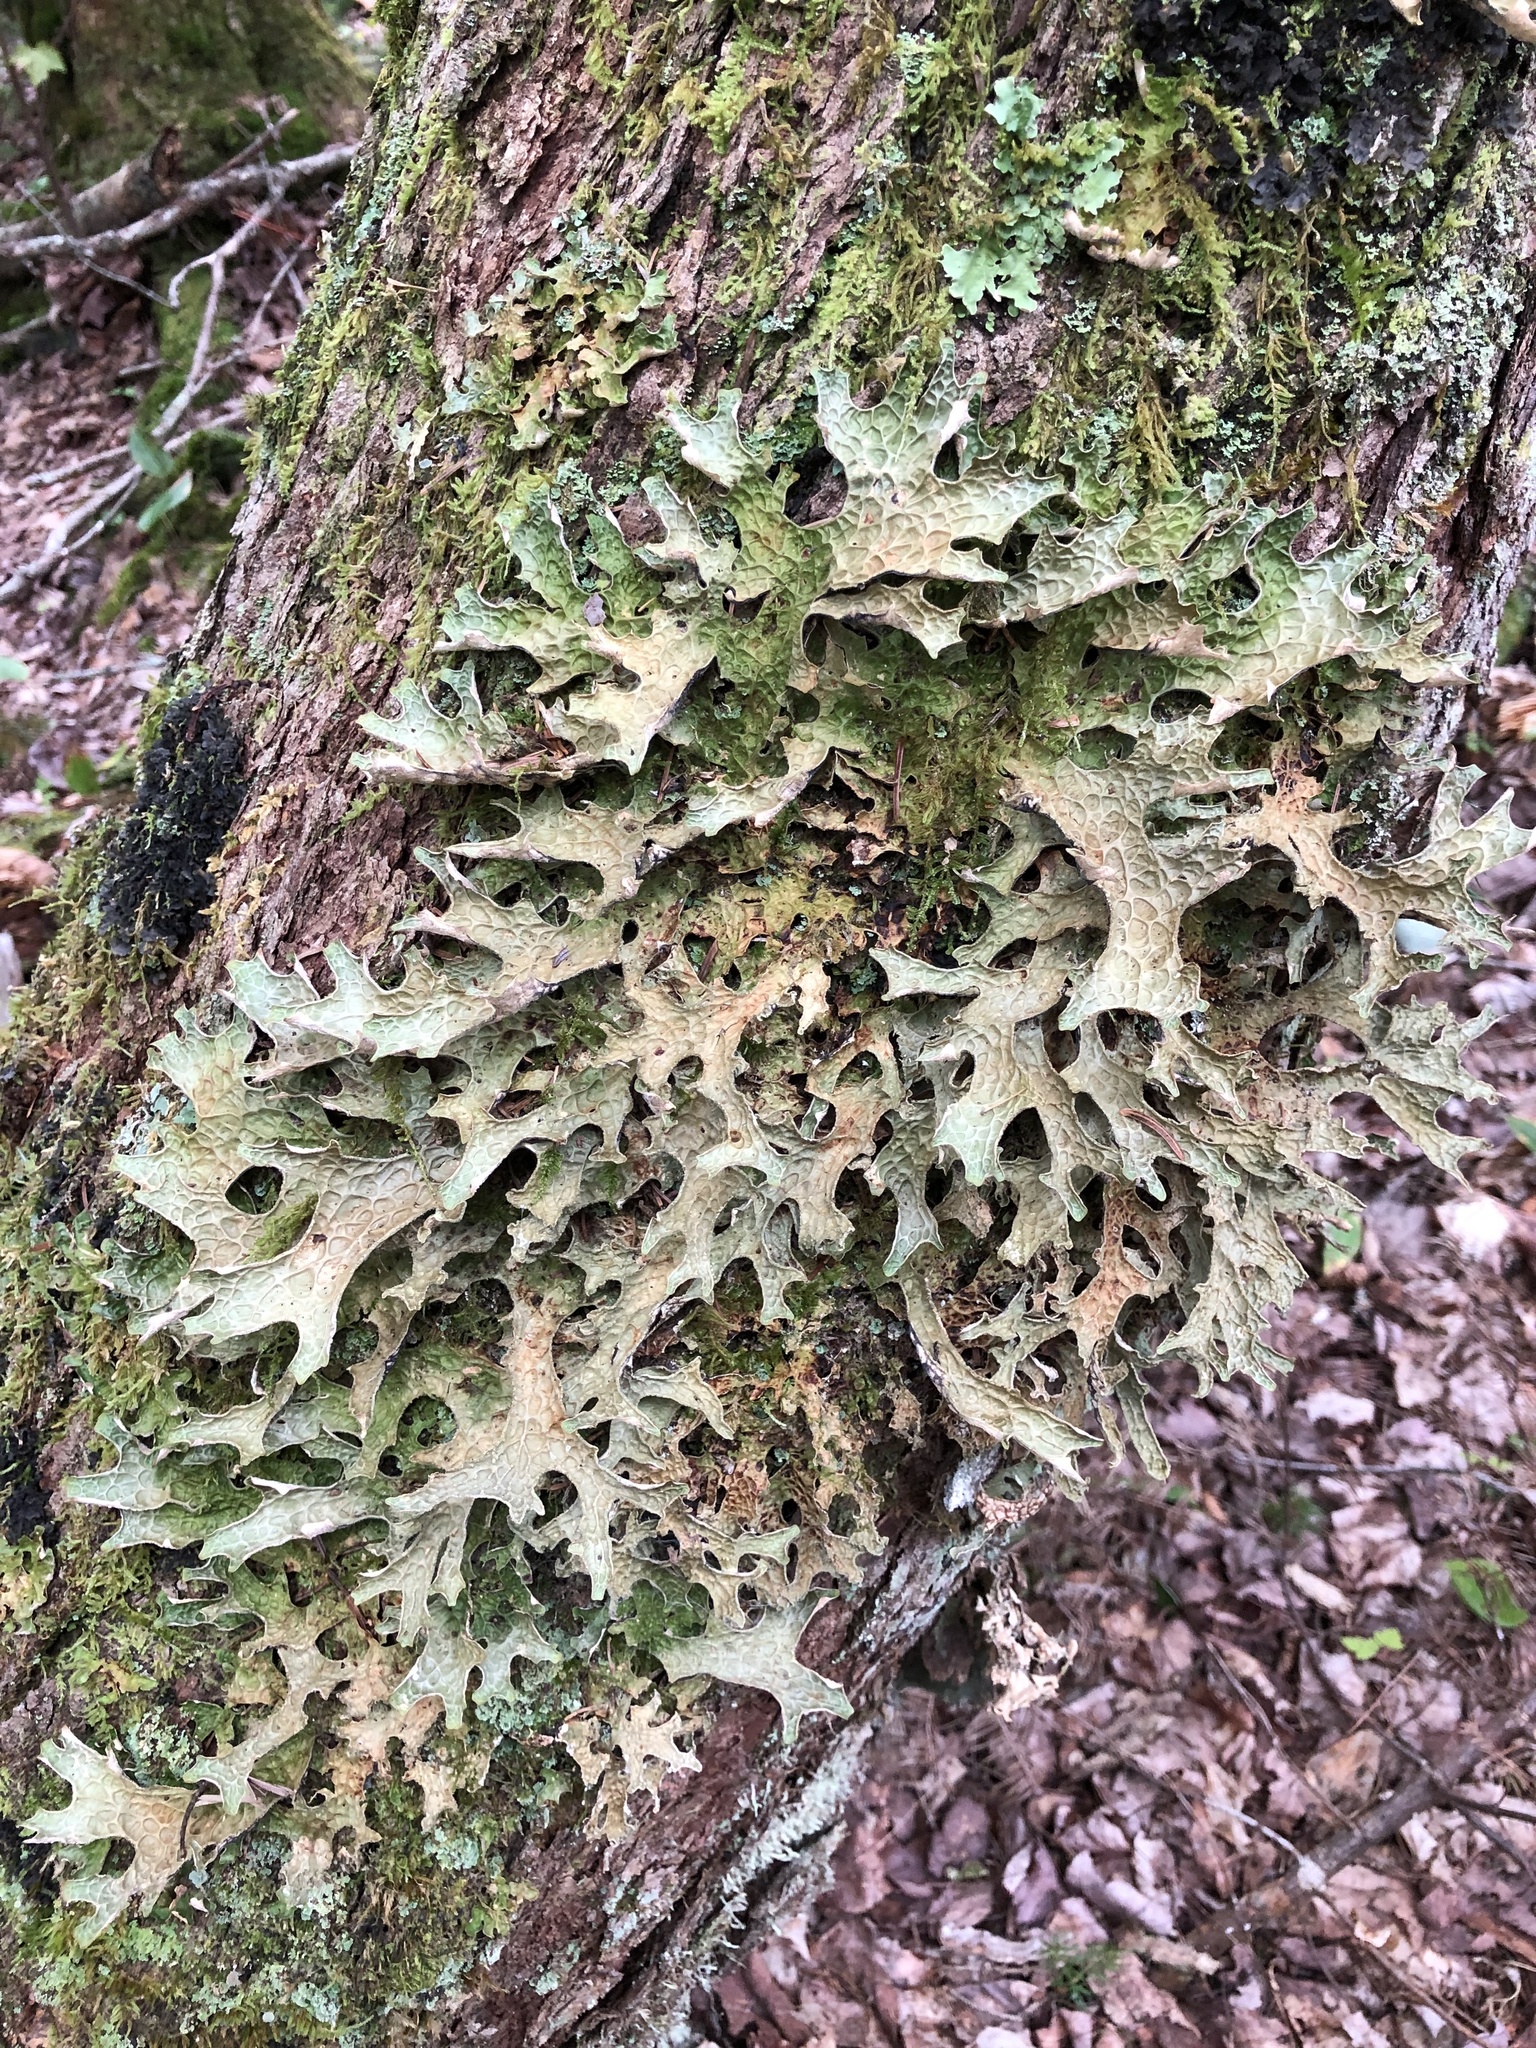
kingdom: Fungi
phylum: Ascomycota
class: Lecanoromycetes
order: Peltigerales
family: Lobariaceae
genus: Lobaria
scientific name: Lobaria pulmonaria
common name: Lungwort
